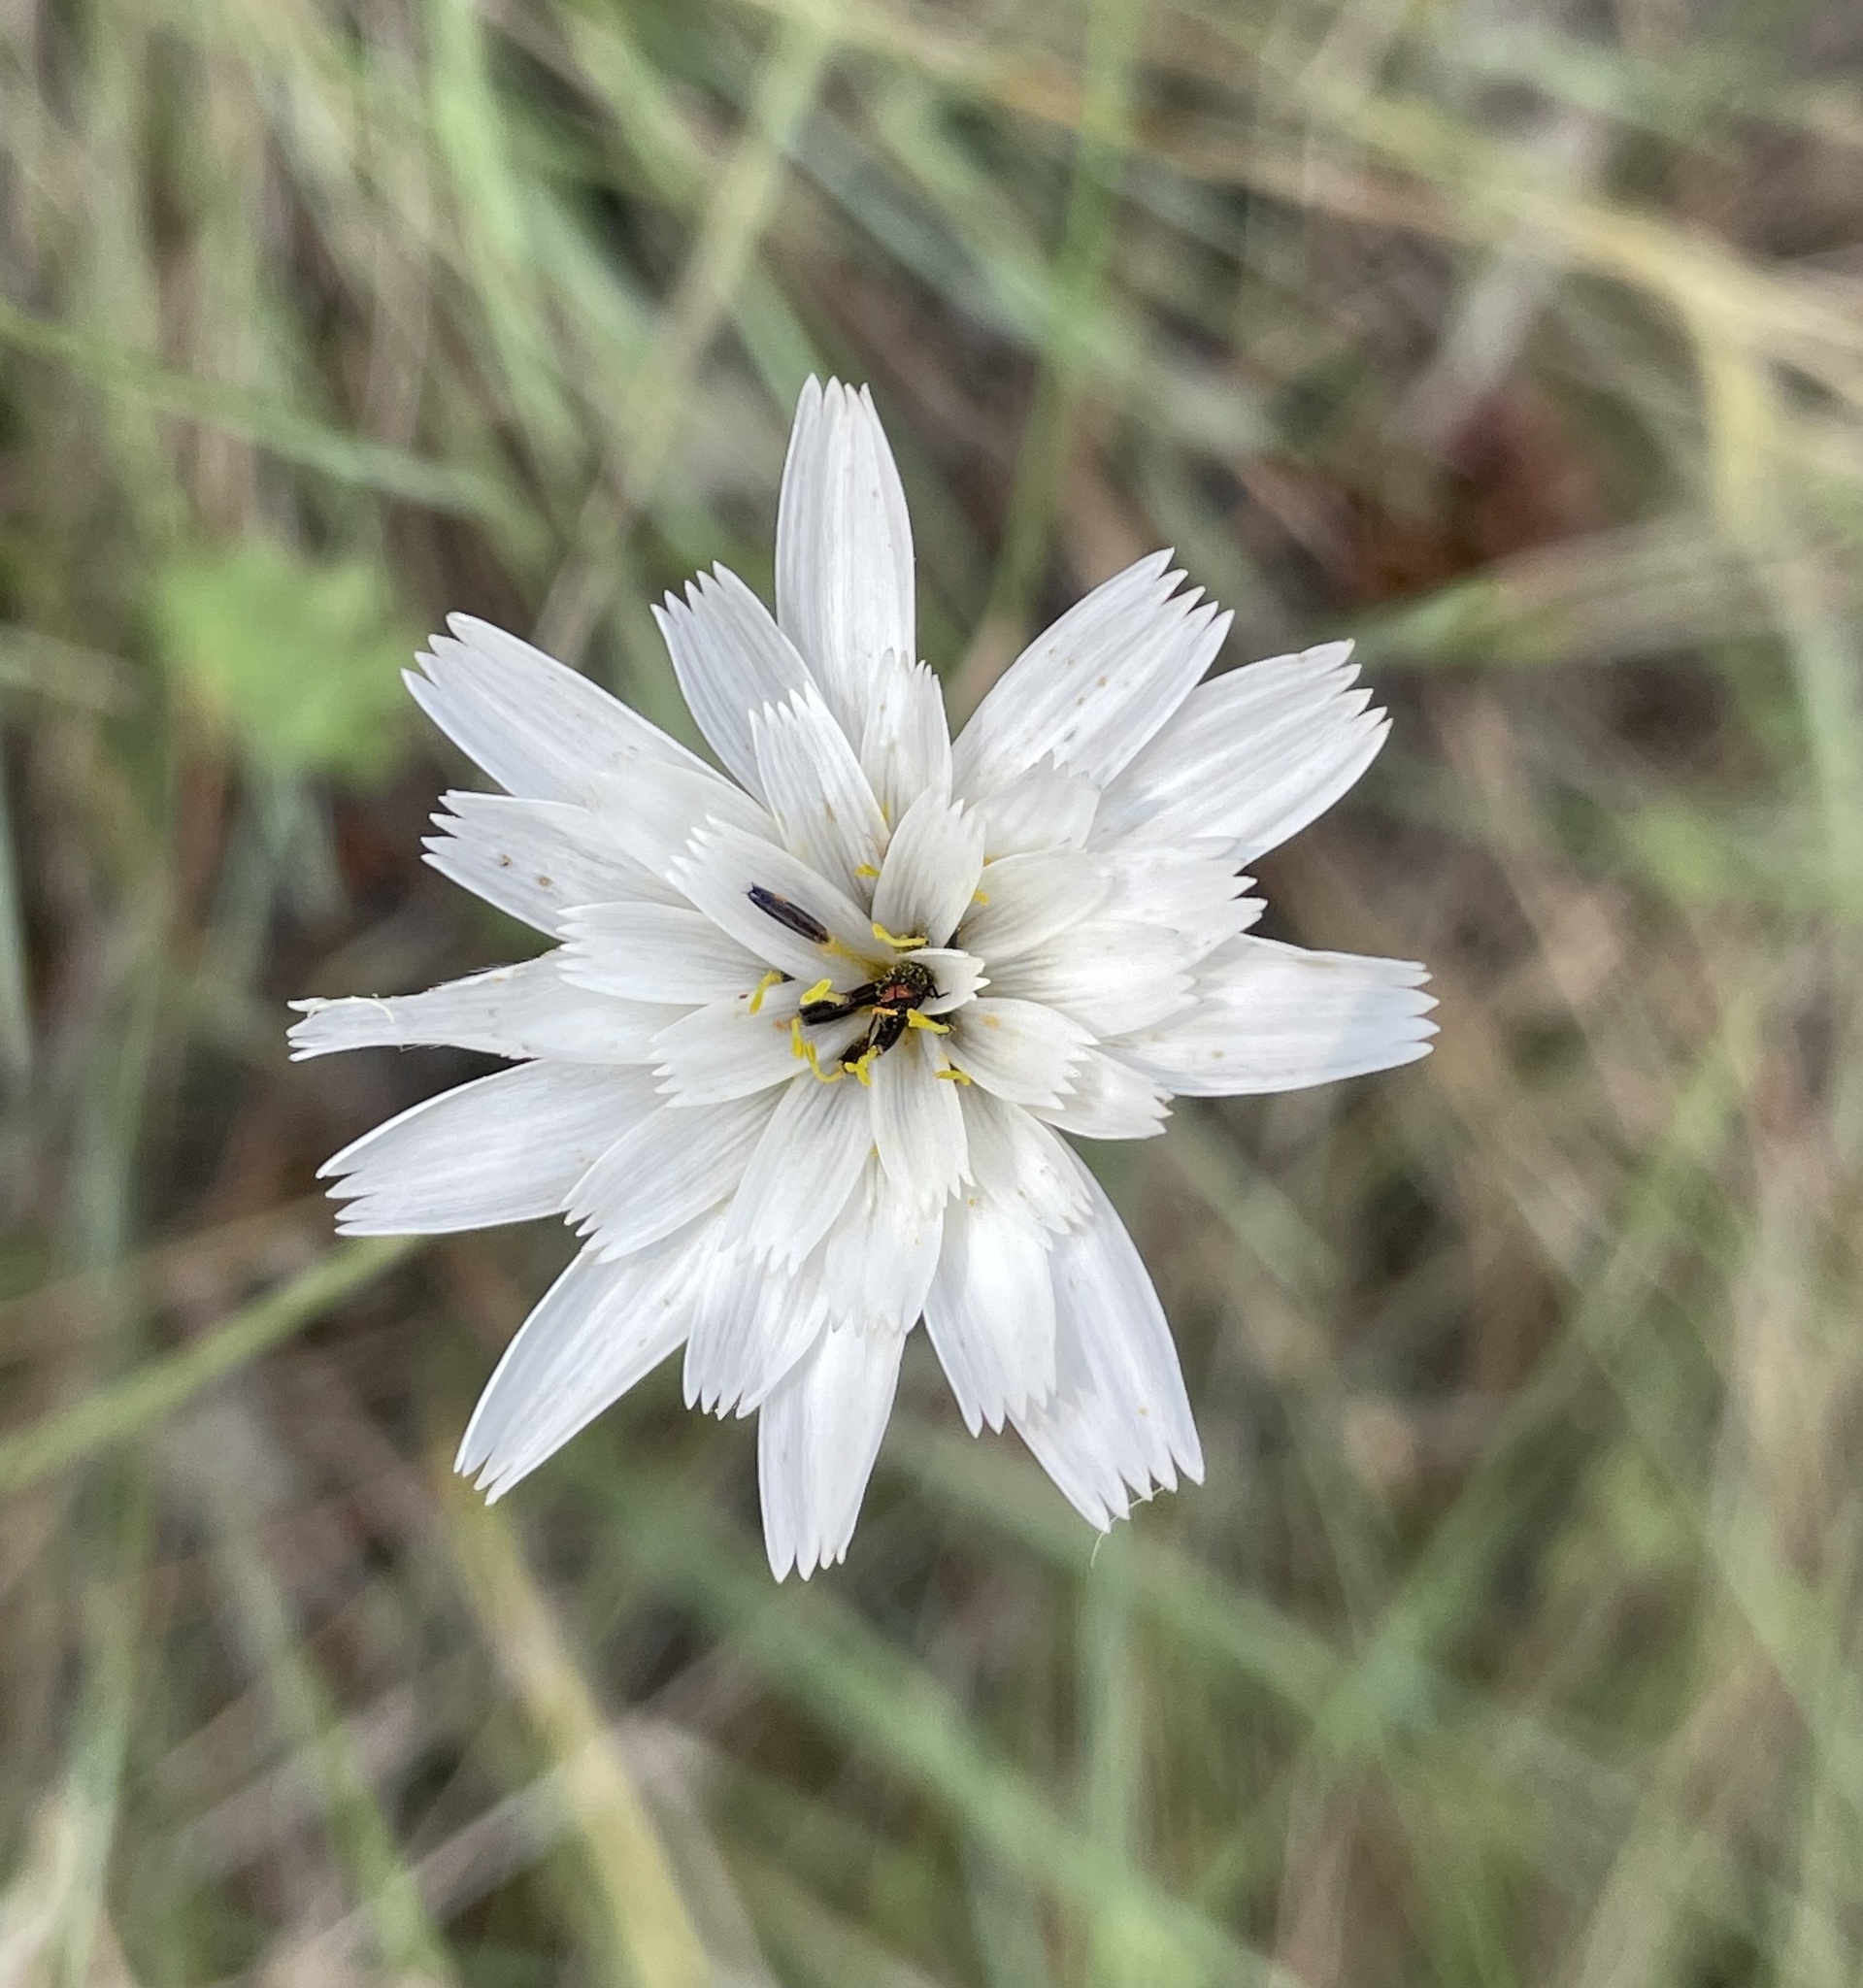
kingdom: Plantae
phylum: Tracheophyta
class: Magnoliopsida
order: Asterales
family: Asteraceae
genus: Catananche
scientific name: Catananche caerulea
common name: Blue cupidone
